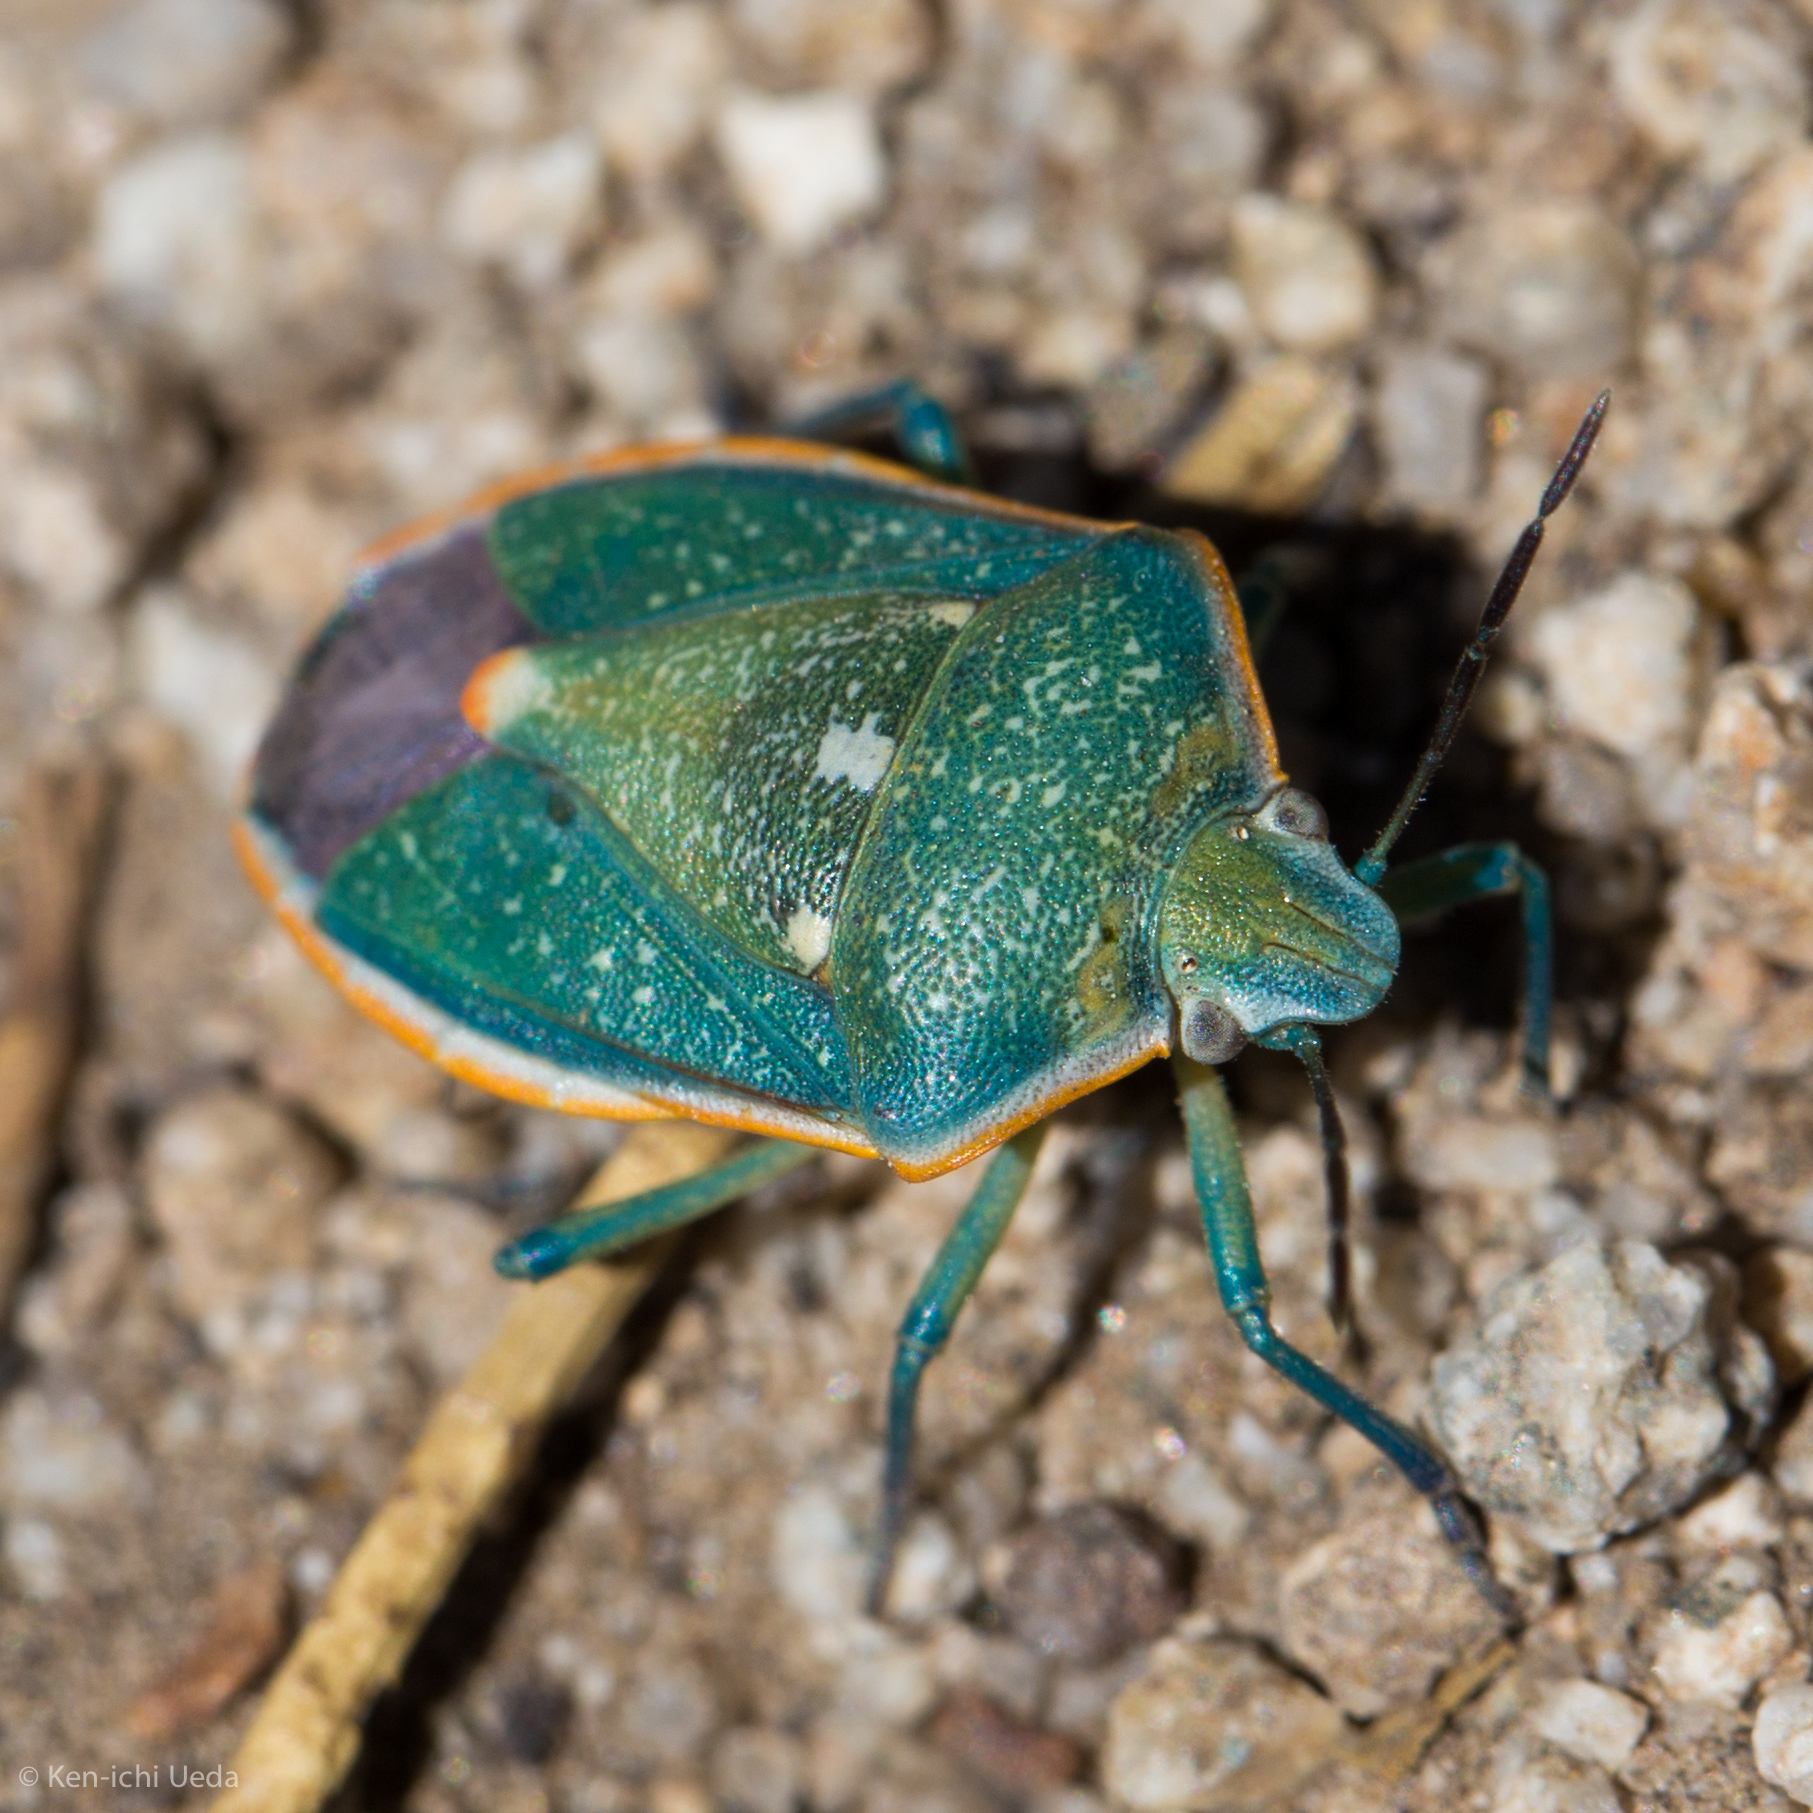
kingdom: Animalia
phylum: Arthropoda
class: Insecta
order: Hemiptera
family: Pentatomidae
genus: Chlorochroa
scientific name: Chlorochroa sayi
